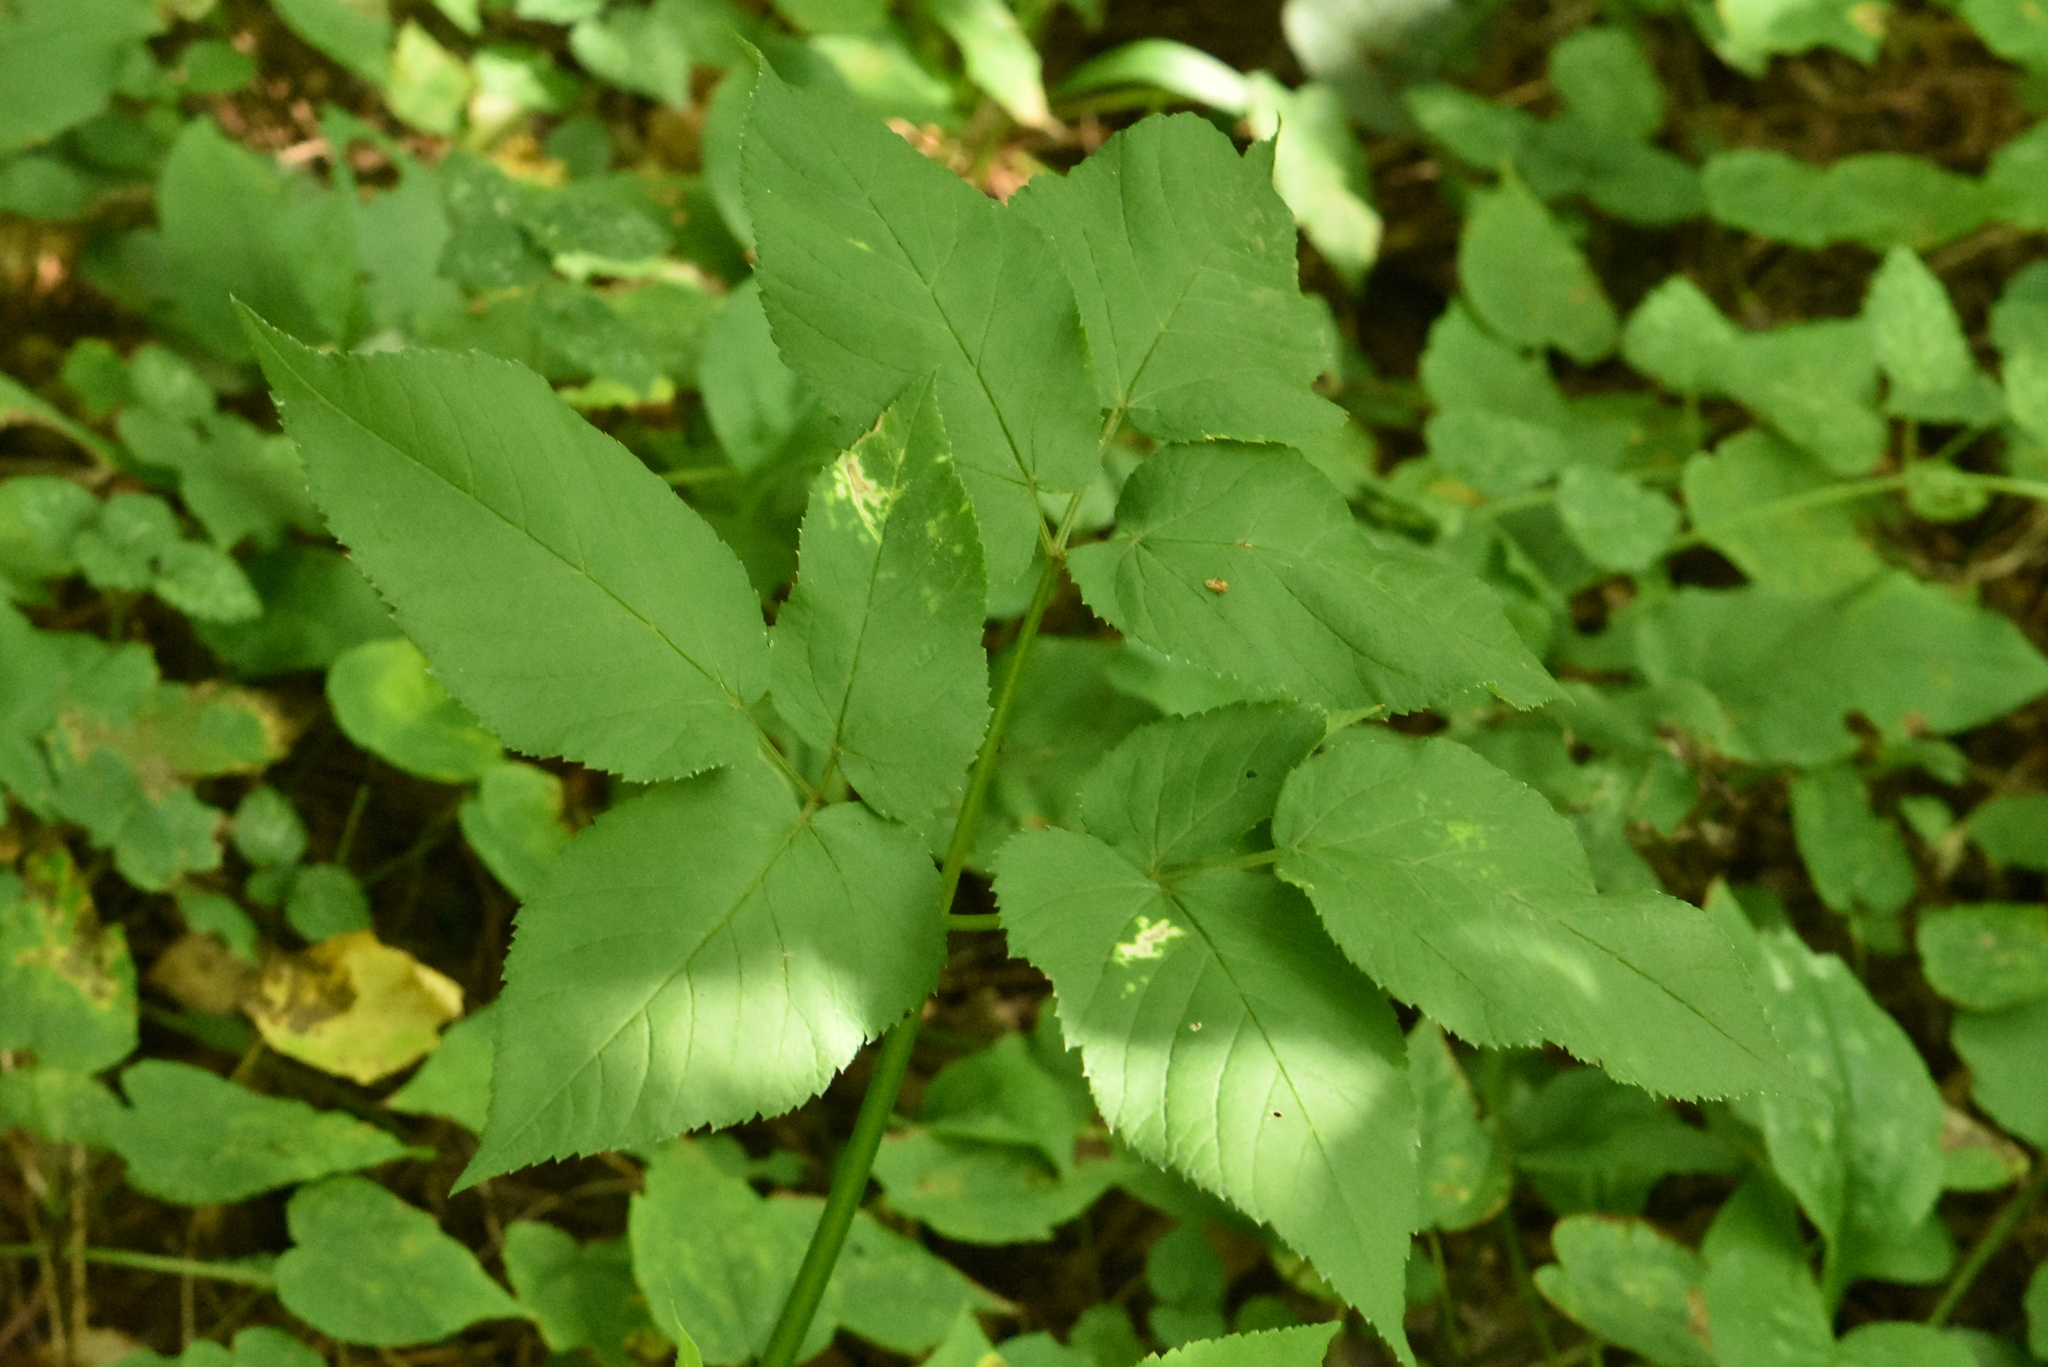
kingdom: Plantae
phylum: Tracheophyta
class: Magnoliopsida
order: Apiales
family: Apiaceae
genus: Aegopodium
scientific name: Aegopodium podagraria
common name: Ground-elder
